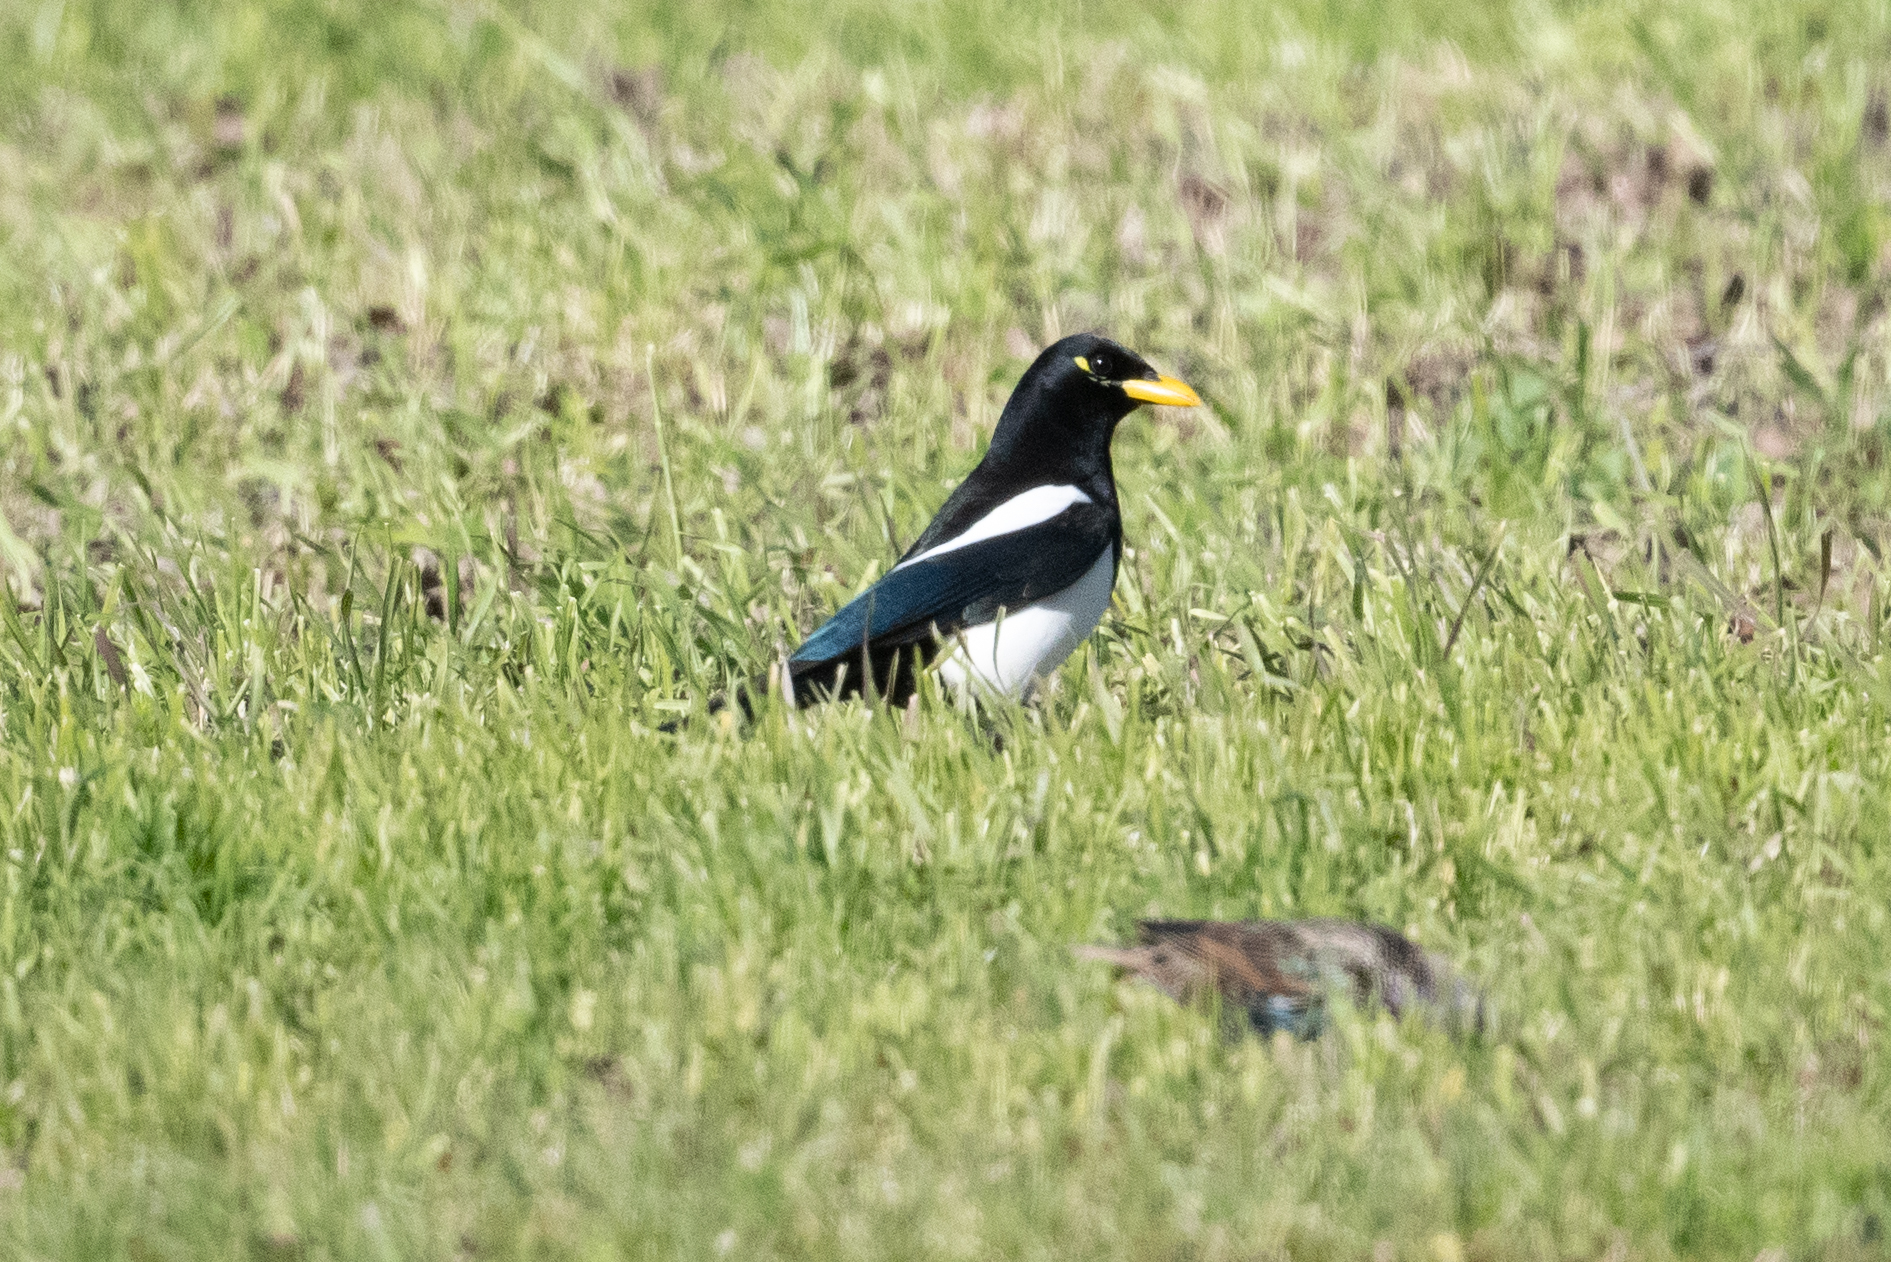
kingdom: Animalia
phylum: Chordata
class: Aves
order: Passeriformes
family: Corvidae
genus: Pica
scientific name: Pica nuttalli
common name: Yellow-billed magpie
